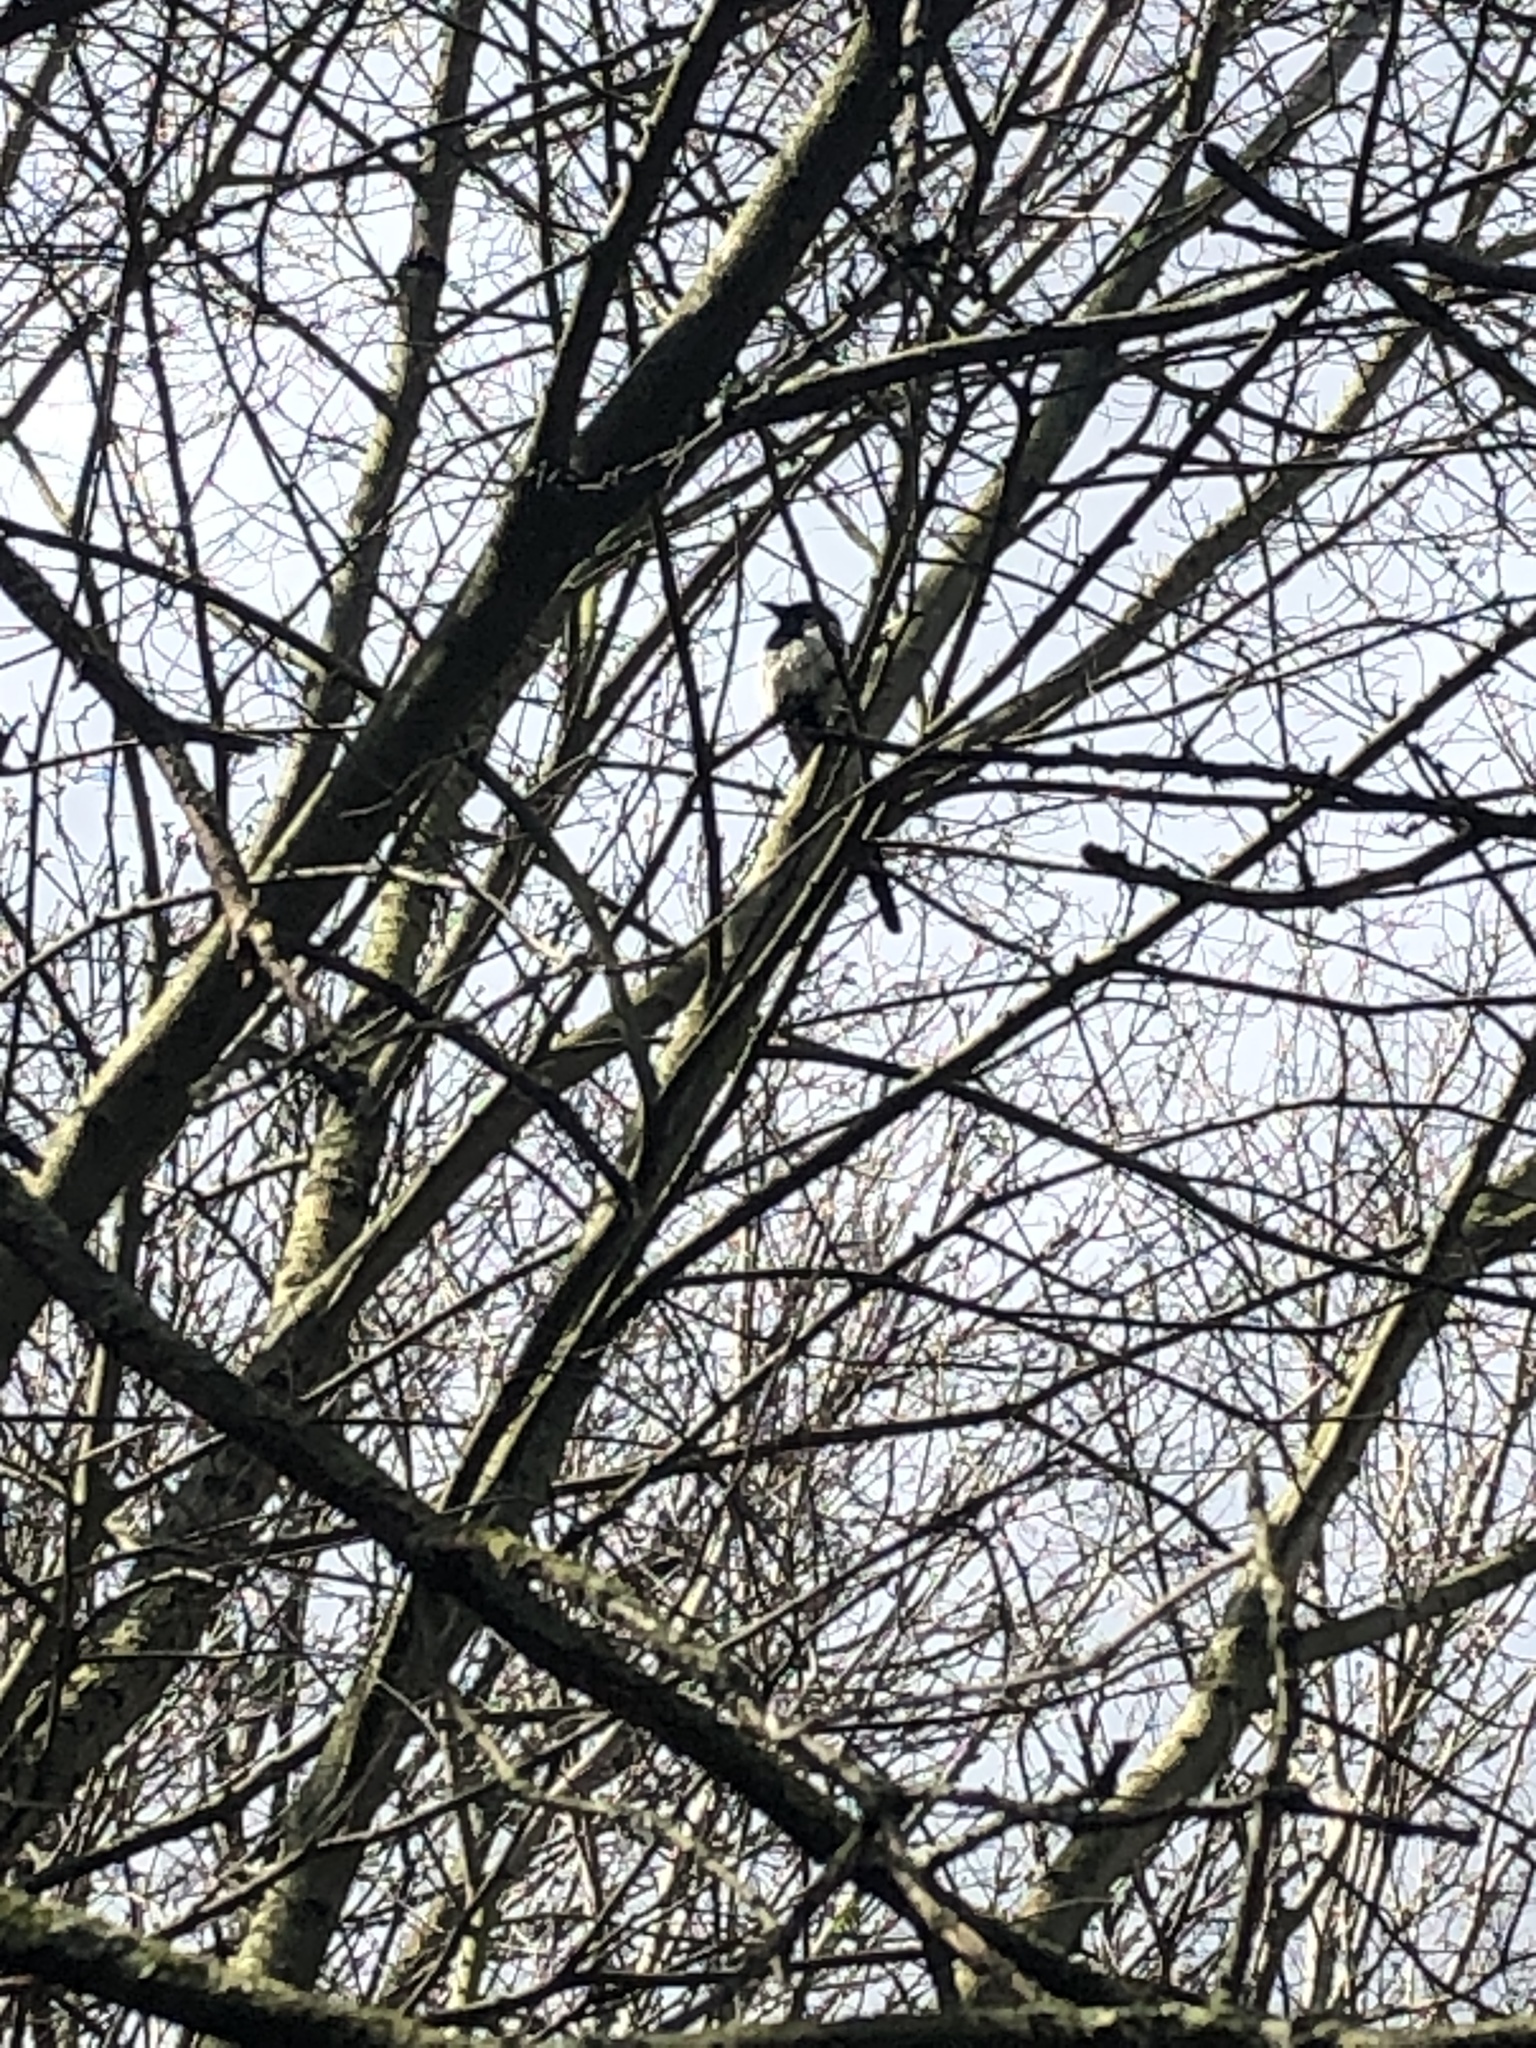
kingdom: Animalia
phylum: Chordata
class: Aves
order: Passeriformes
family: Corvidae
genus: Pica
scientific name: Pica pica
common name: Eurasian magpie
